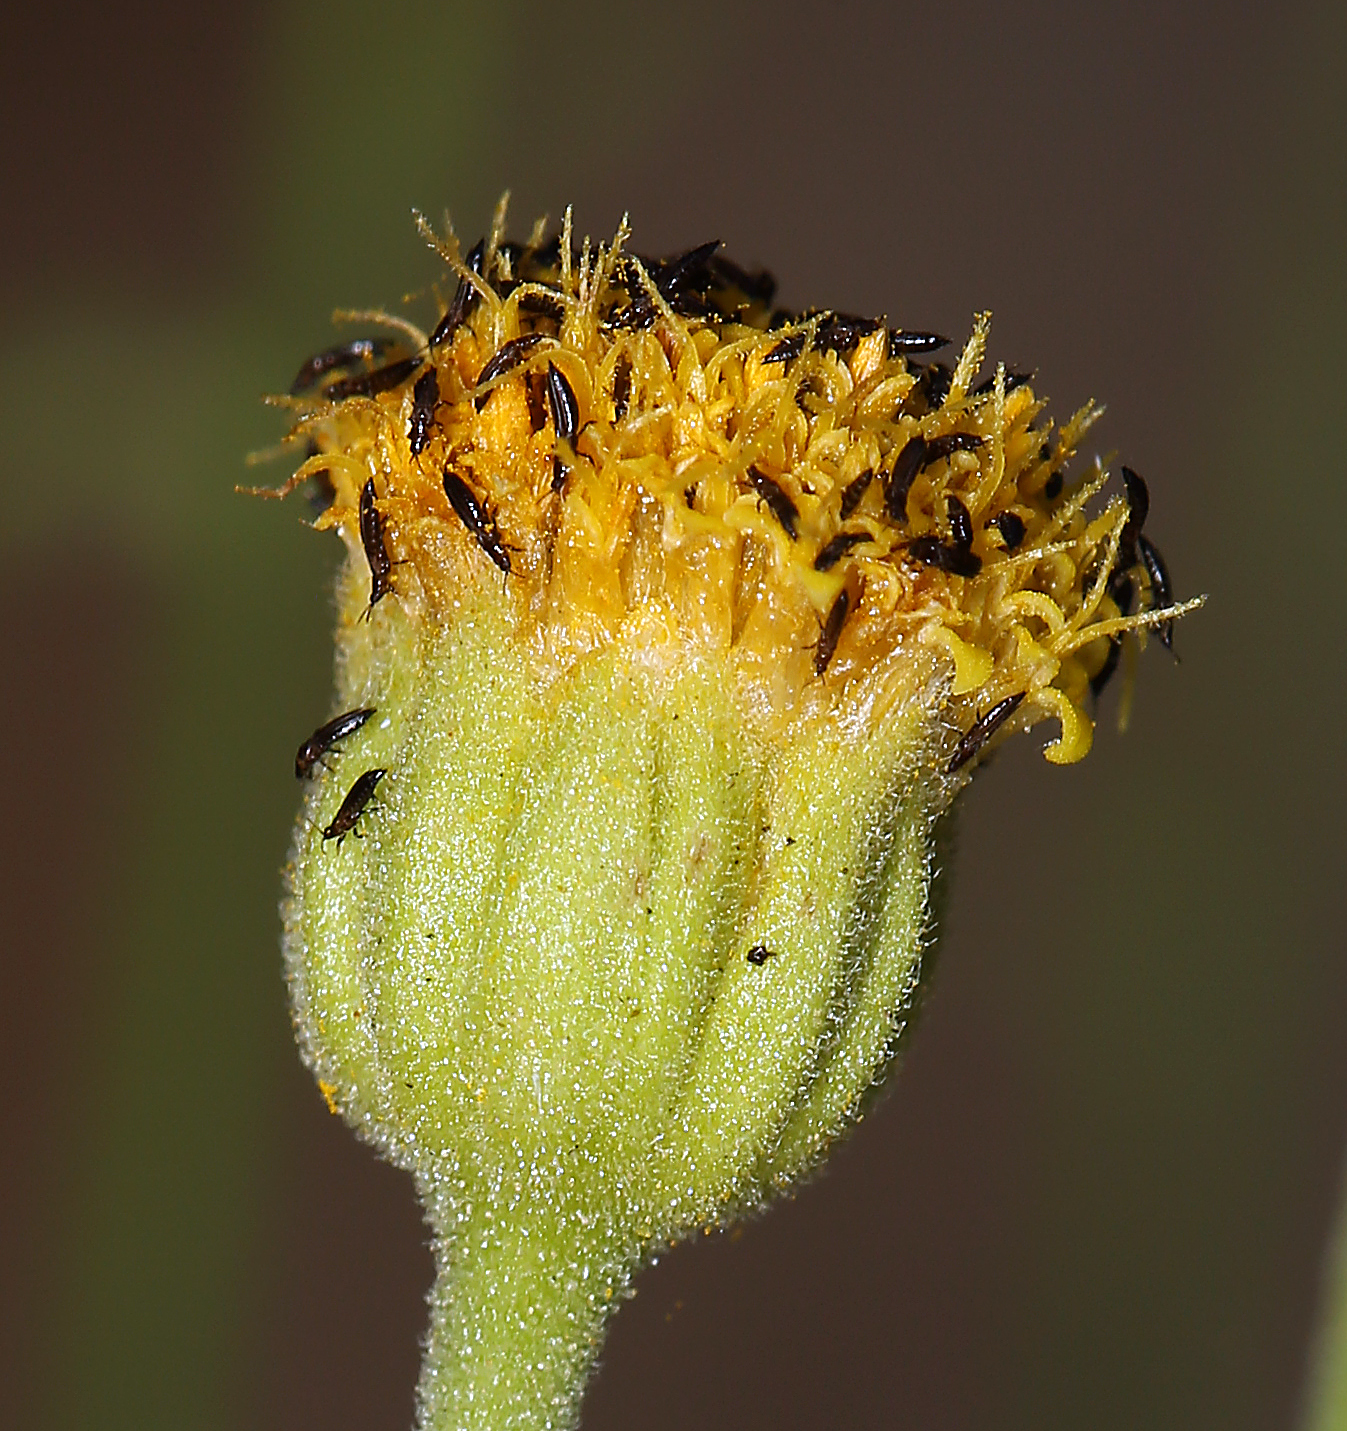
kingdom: Plantae
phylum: Tracheophyta
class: Magnoliopsida
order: Asterales
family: Asteraceae
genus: Laphamia
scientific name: Laphamia megalocephala
